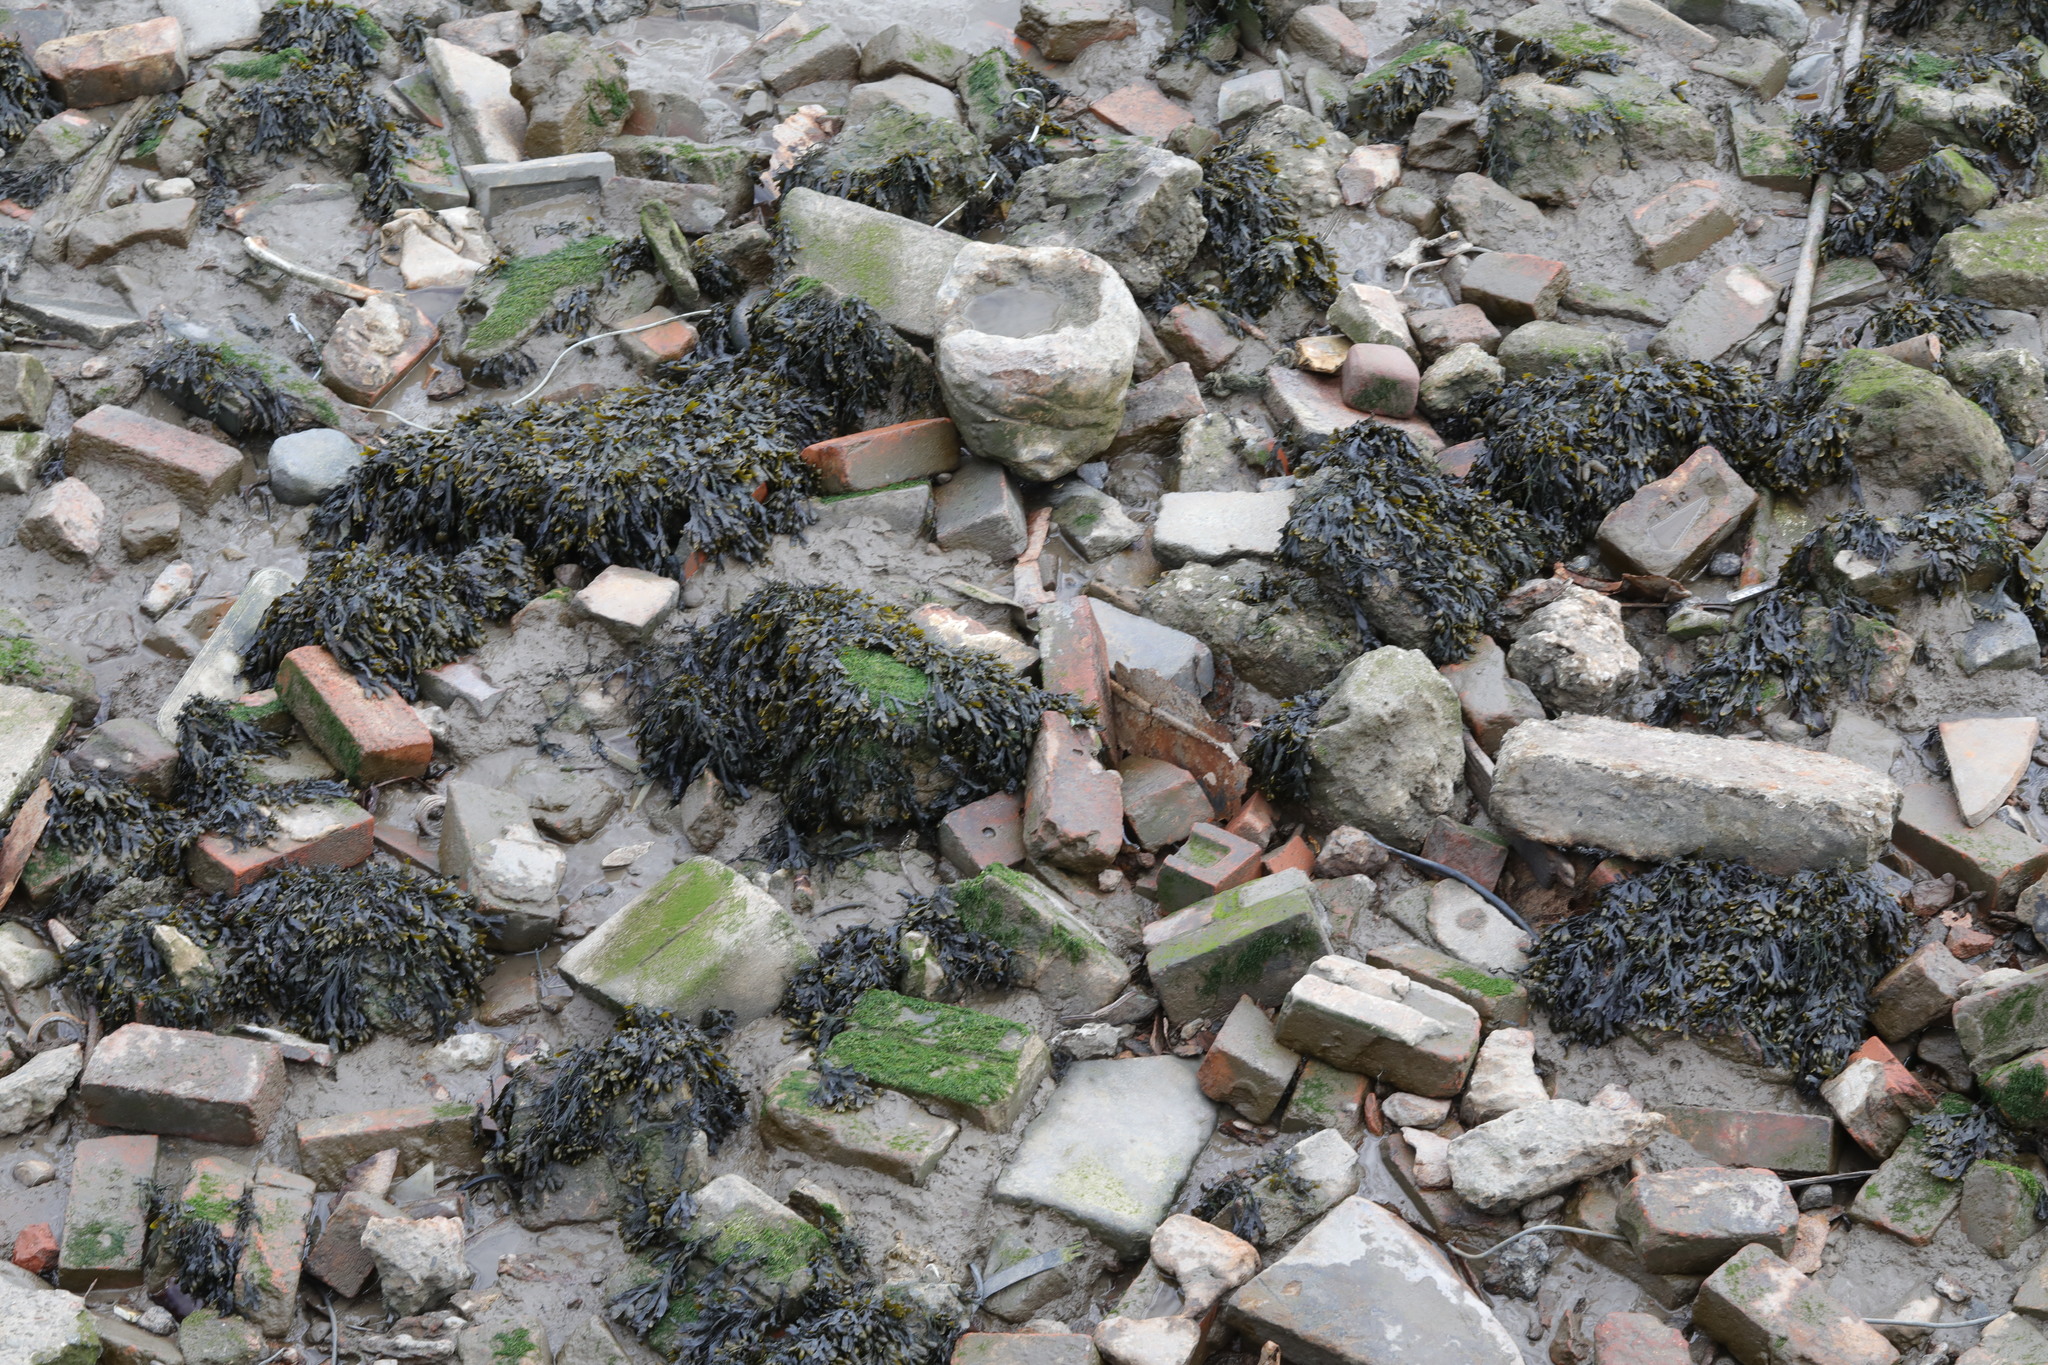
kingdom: Chromista
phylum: Ochrophyta
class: Phaeophyceae
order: Fucales
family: Fucaceae
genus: Fucus
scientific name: Fucus vesiculosus
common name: Bladder wrack
